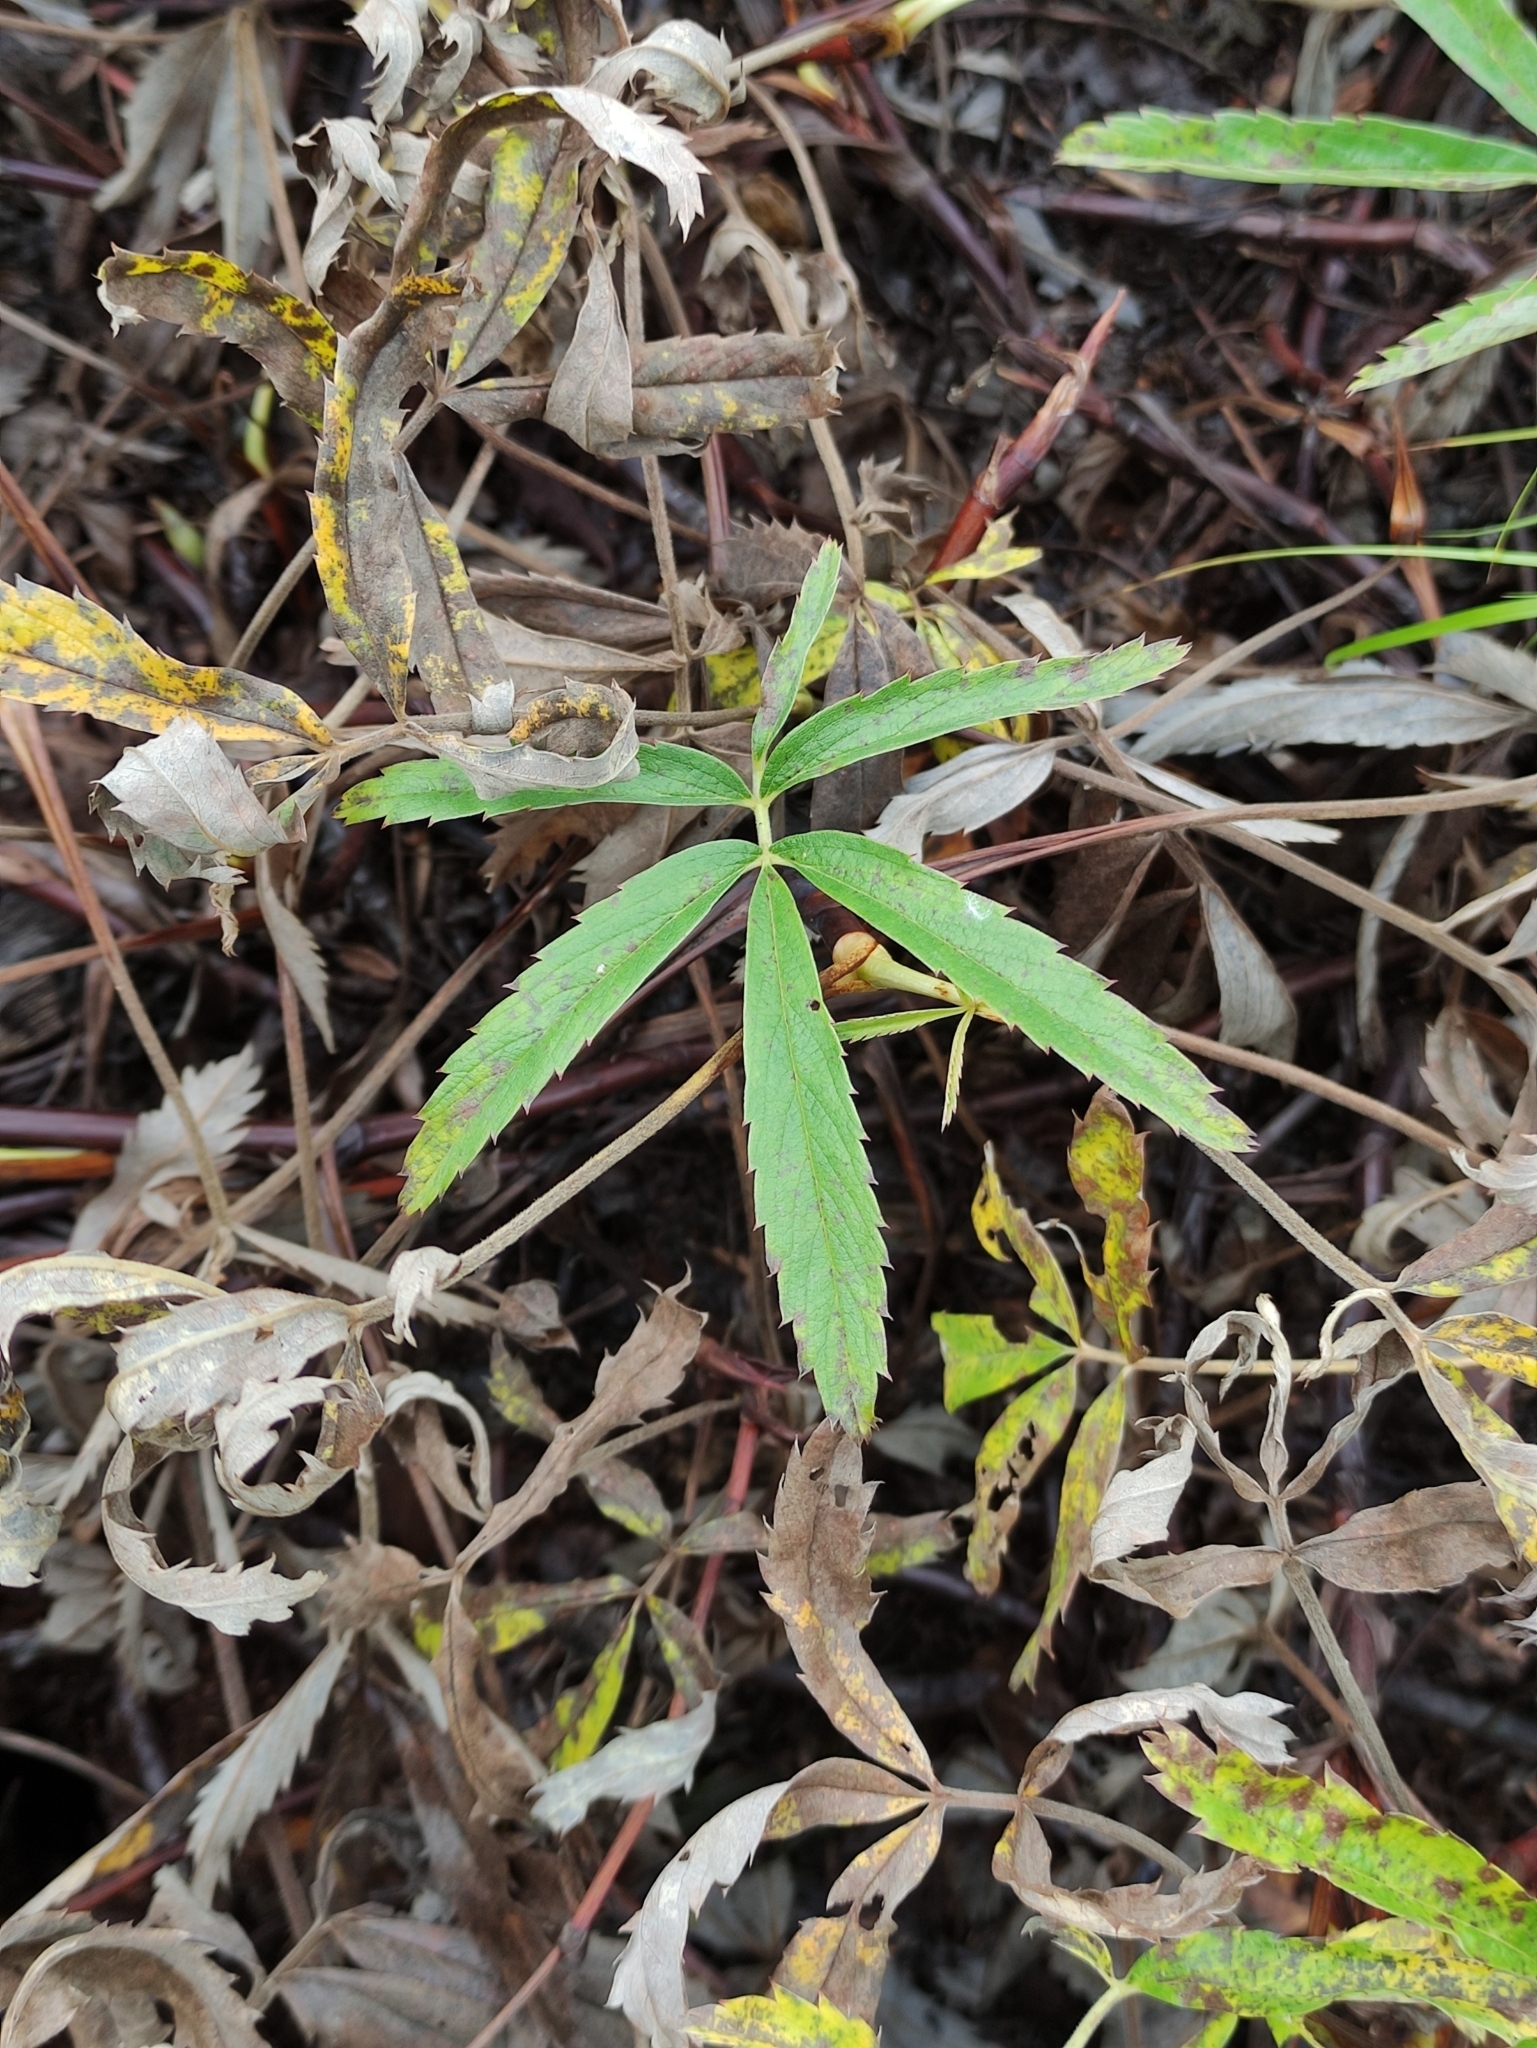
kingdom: Plantae
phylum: Tracheophyta
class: Magnoliopsida
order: Rosales
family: Rosaceae
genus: Comarum
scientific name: Comarum palustre
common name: Marsh cinquefoil
